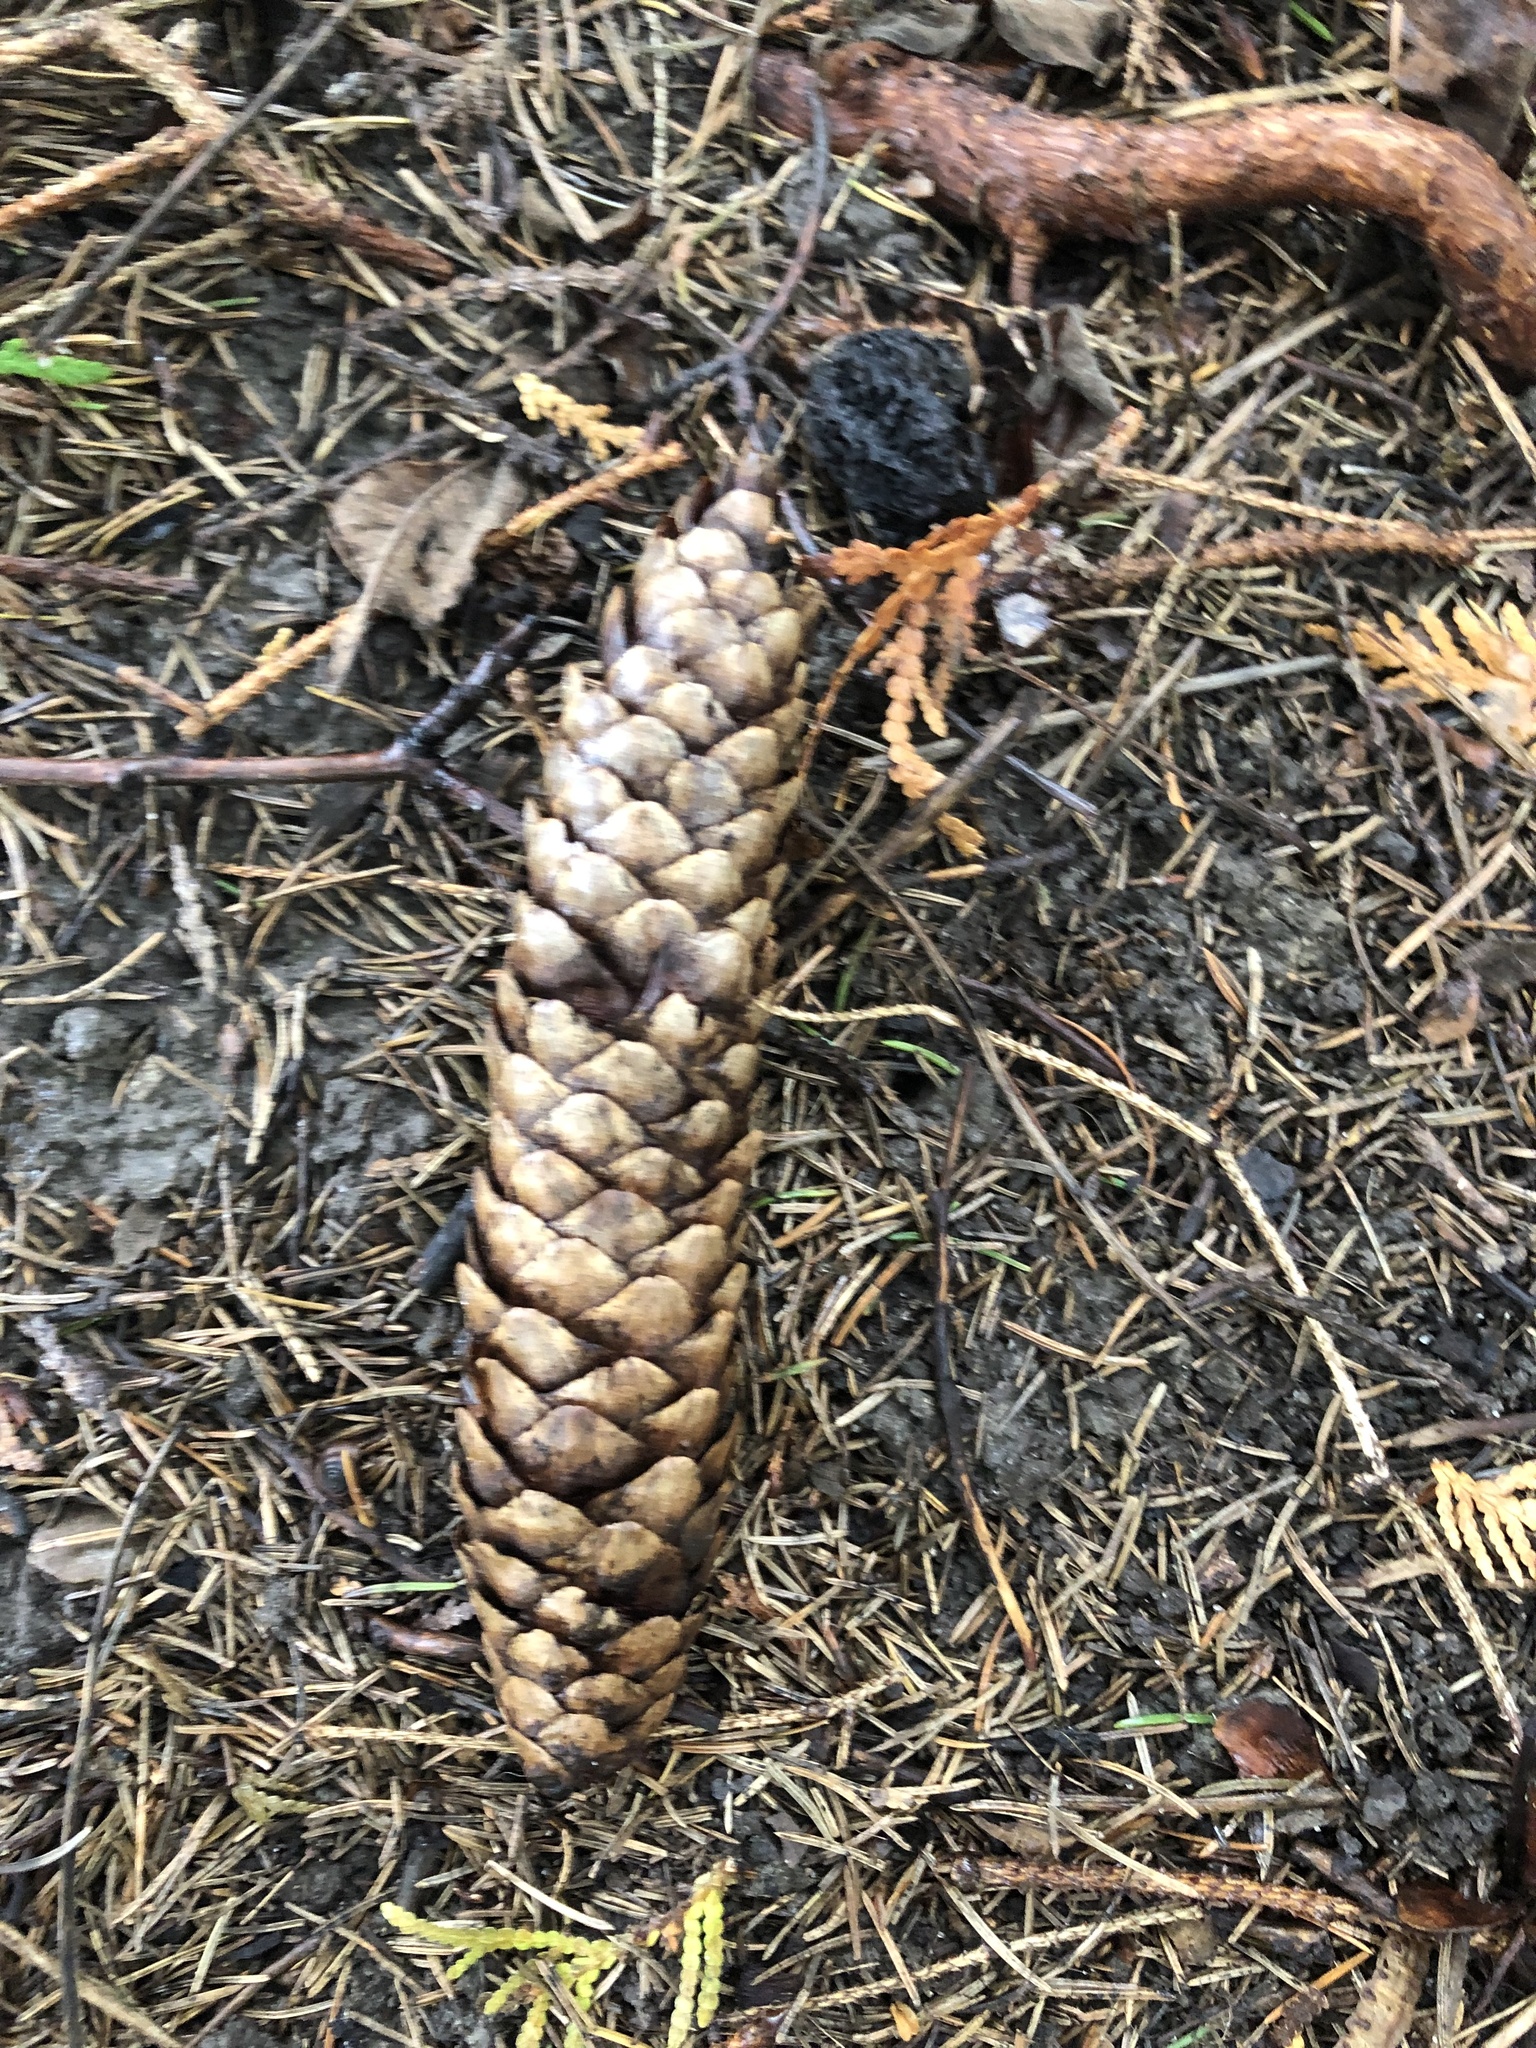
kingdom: Plantae
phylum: Tracheophyta
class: Pinopsida
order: Pinales
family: Pinaceae
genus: Picea
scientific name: Picea abies
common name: Norway spruce
